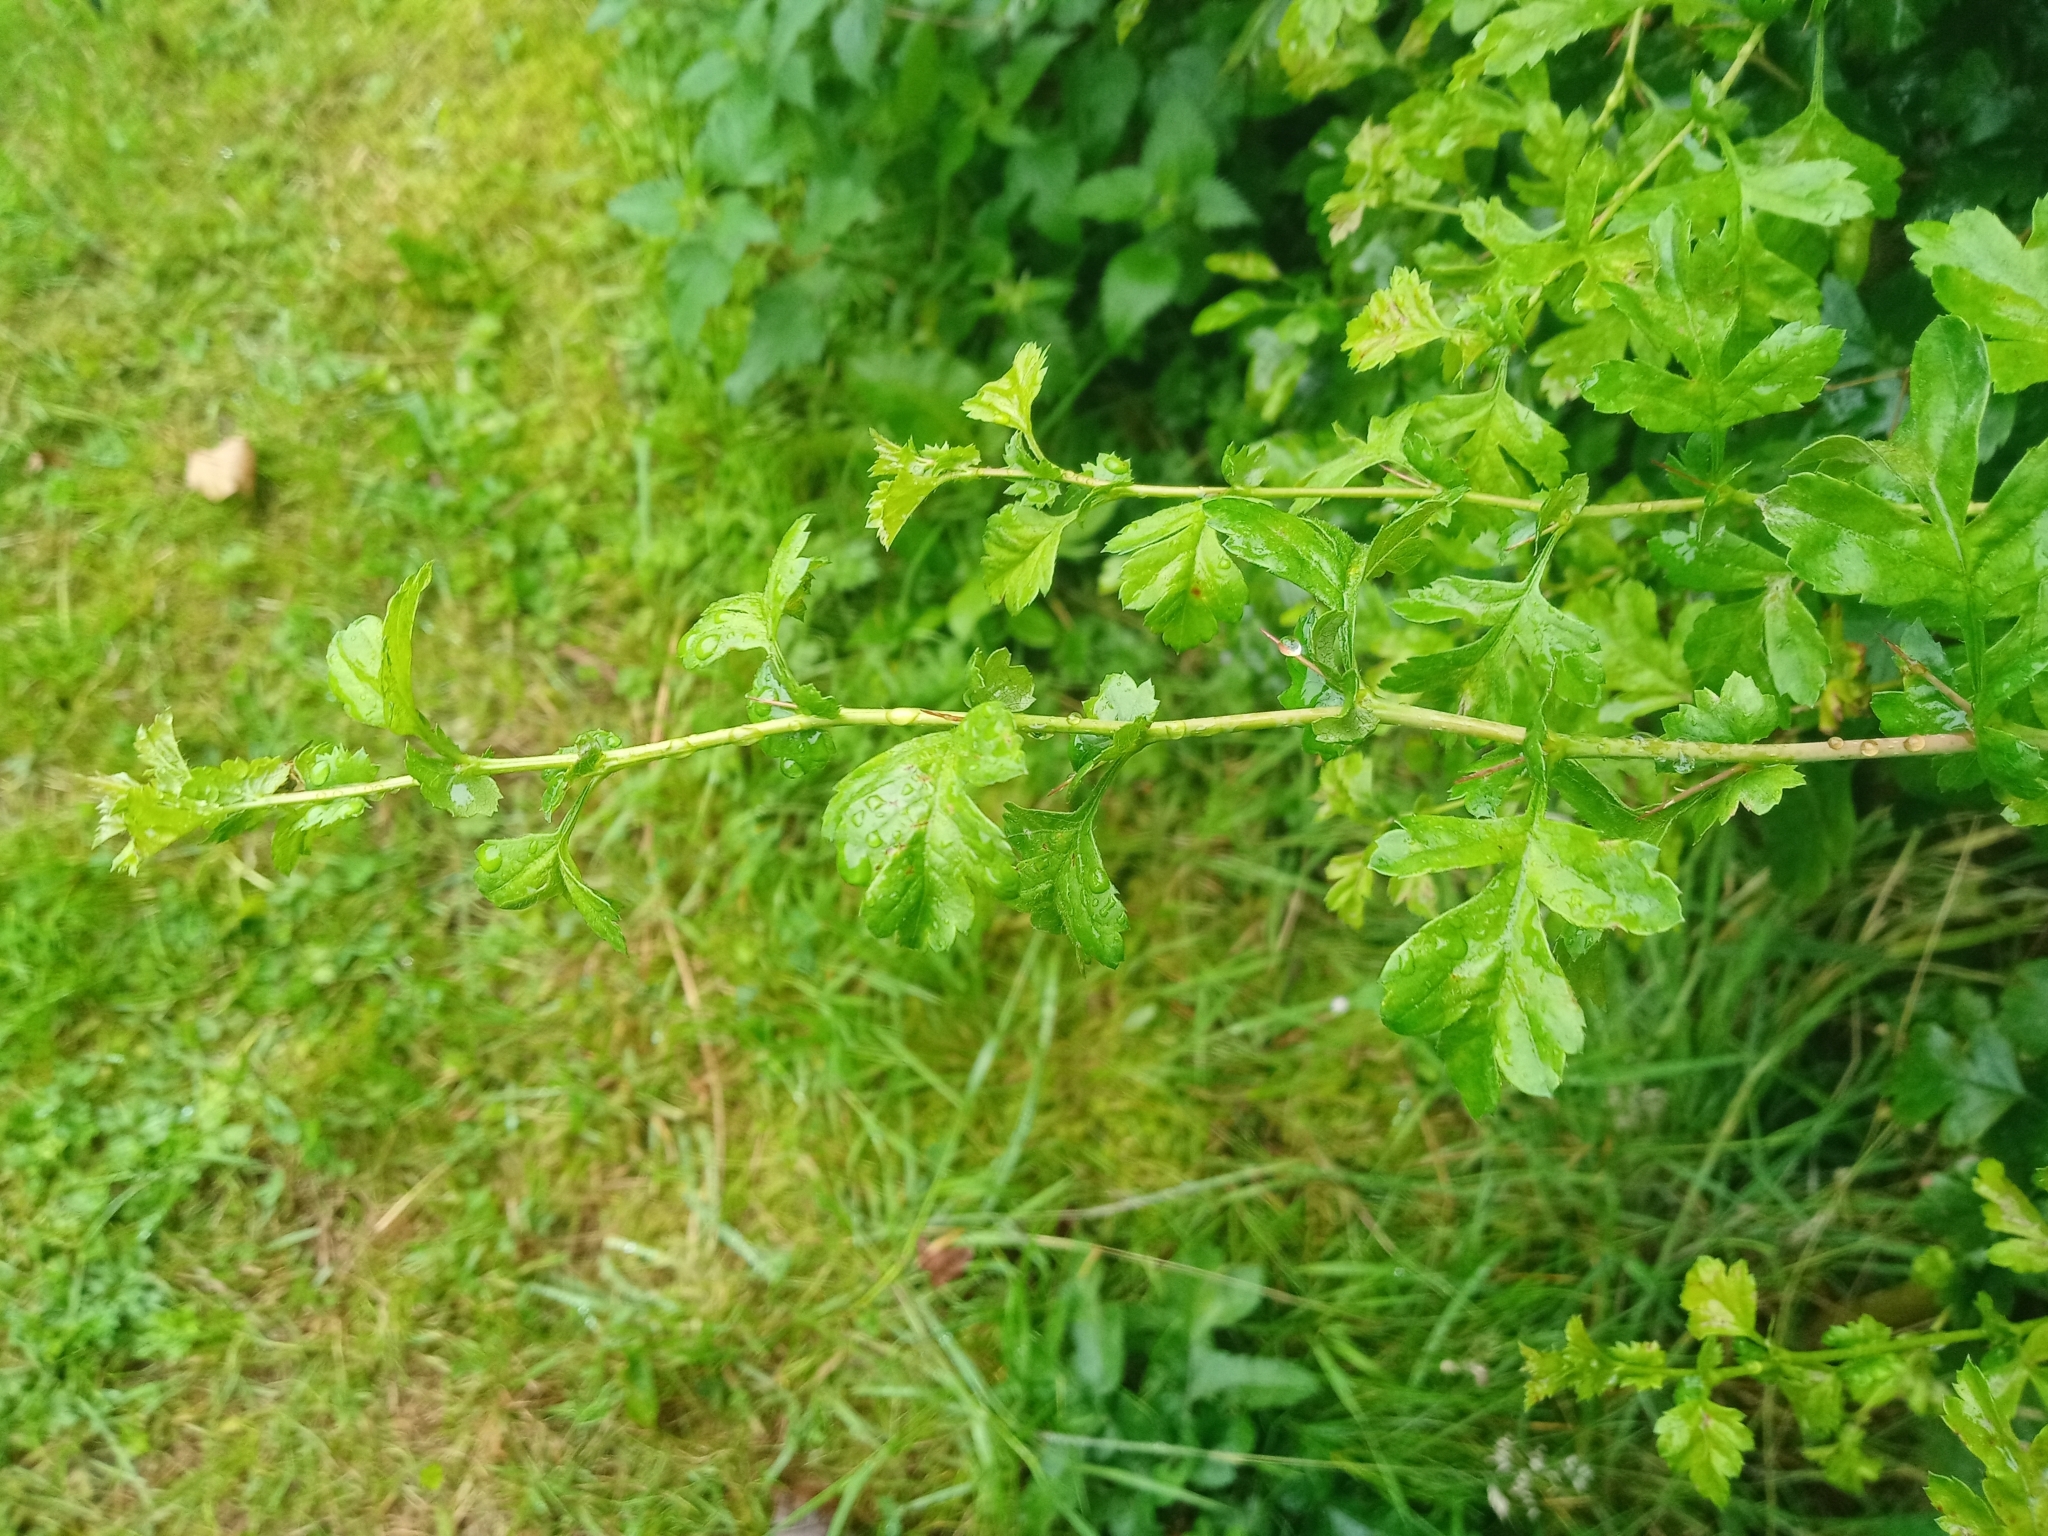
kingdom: Plantae
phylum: Tracheophyta
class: Magnoliopsida
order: Rosales
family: Rosaceae
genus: Crataegus
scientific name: Crataegus monogyna
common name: Hawthorn
